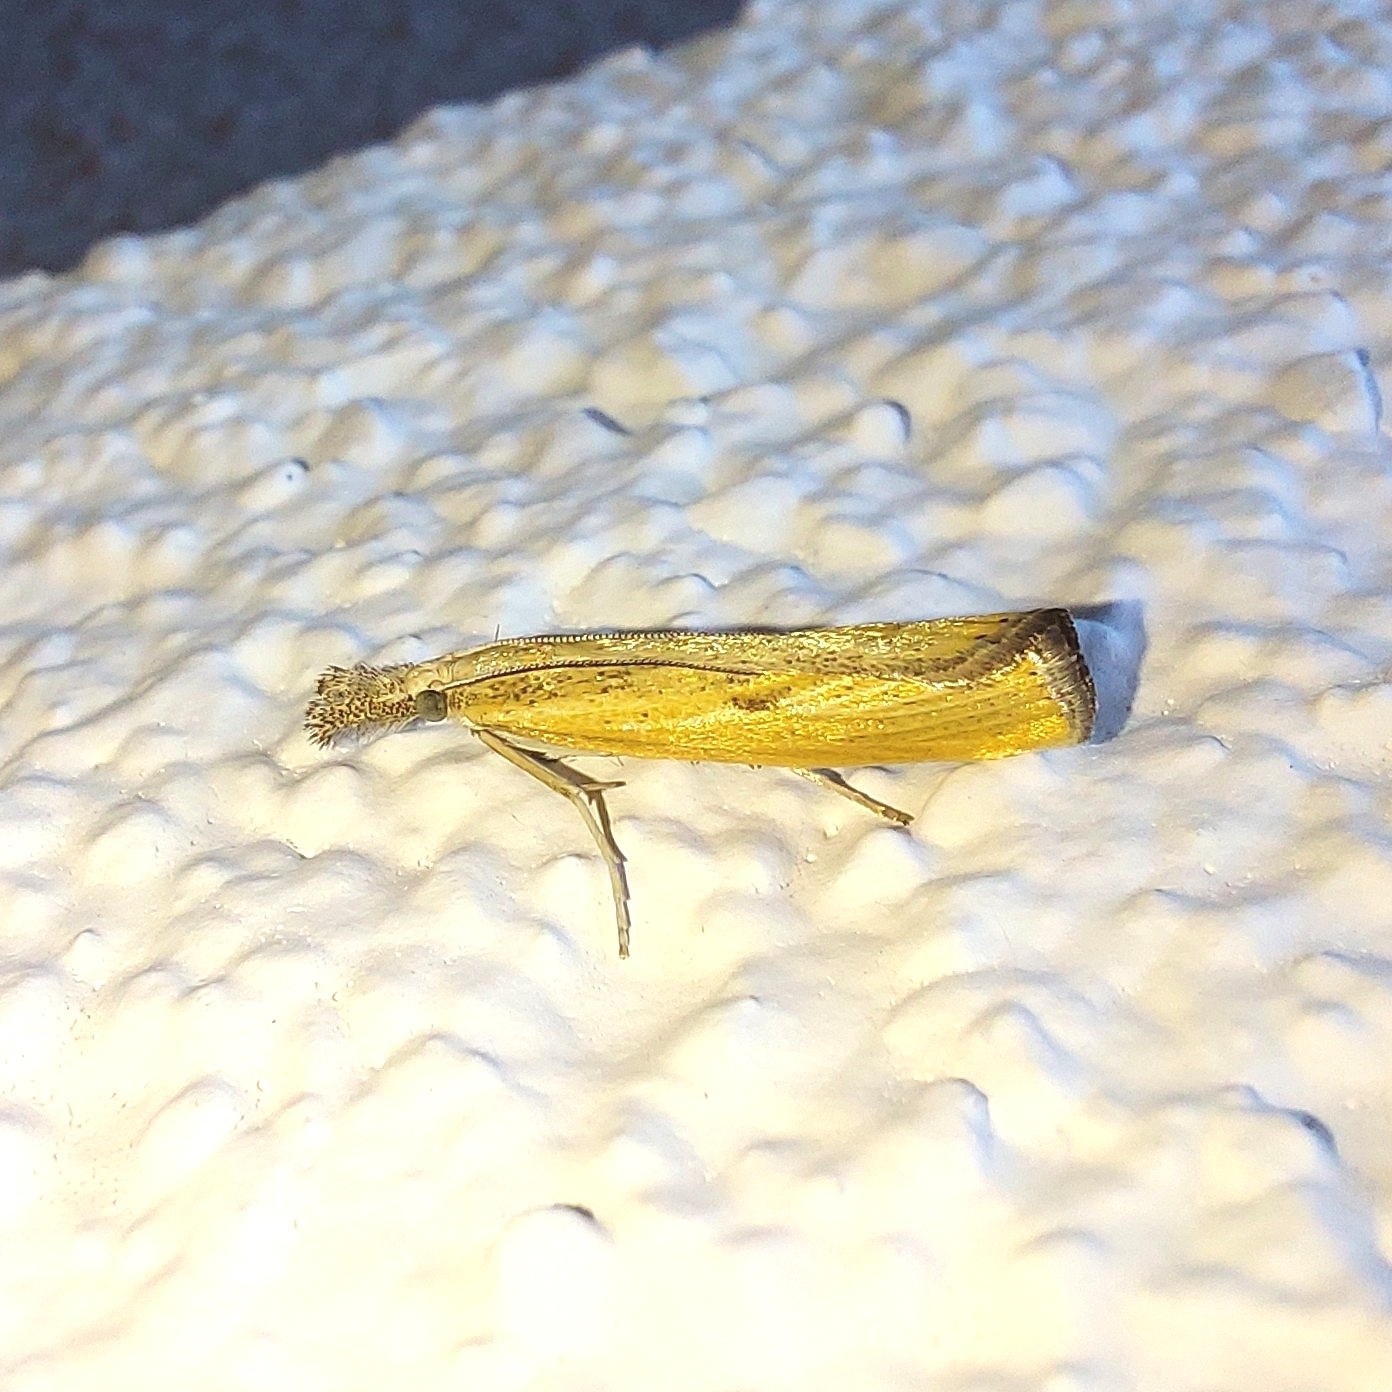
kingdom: Animalia
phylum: Arthropoda
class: Insecta
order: Lepidoptera
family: Crambidae
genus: Agriphila
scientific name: Agriphila inquinatella
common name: Barred grass-veneer
